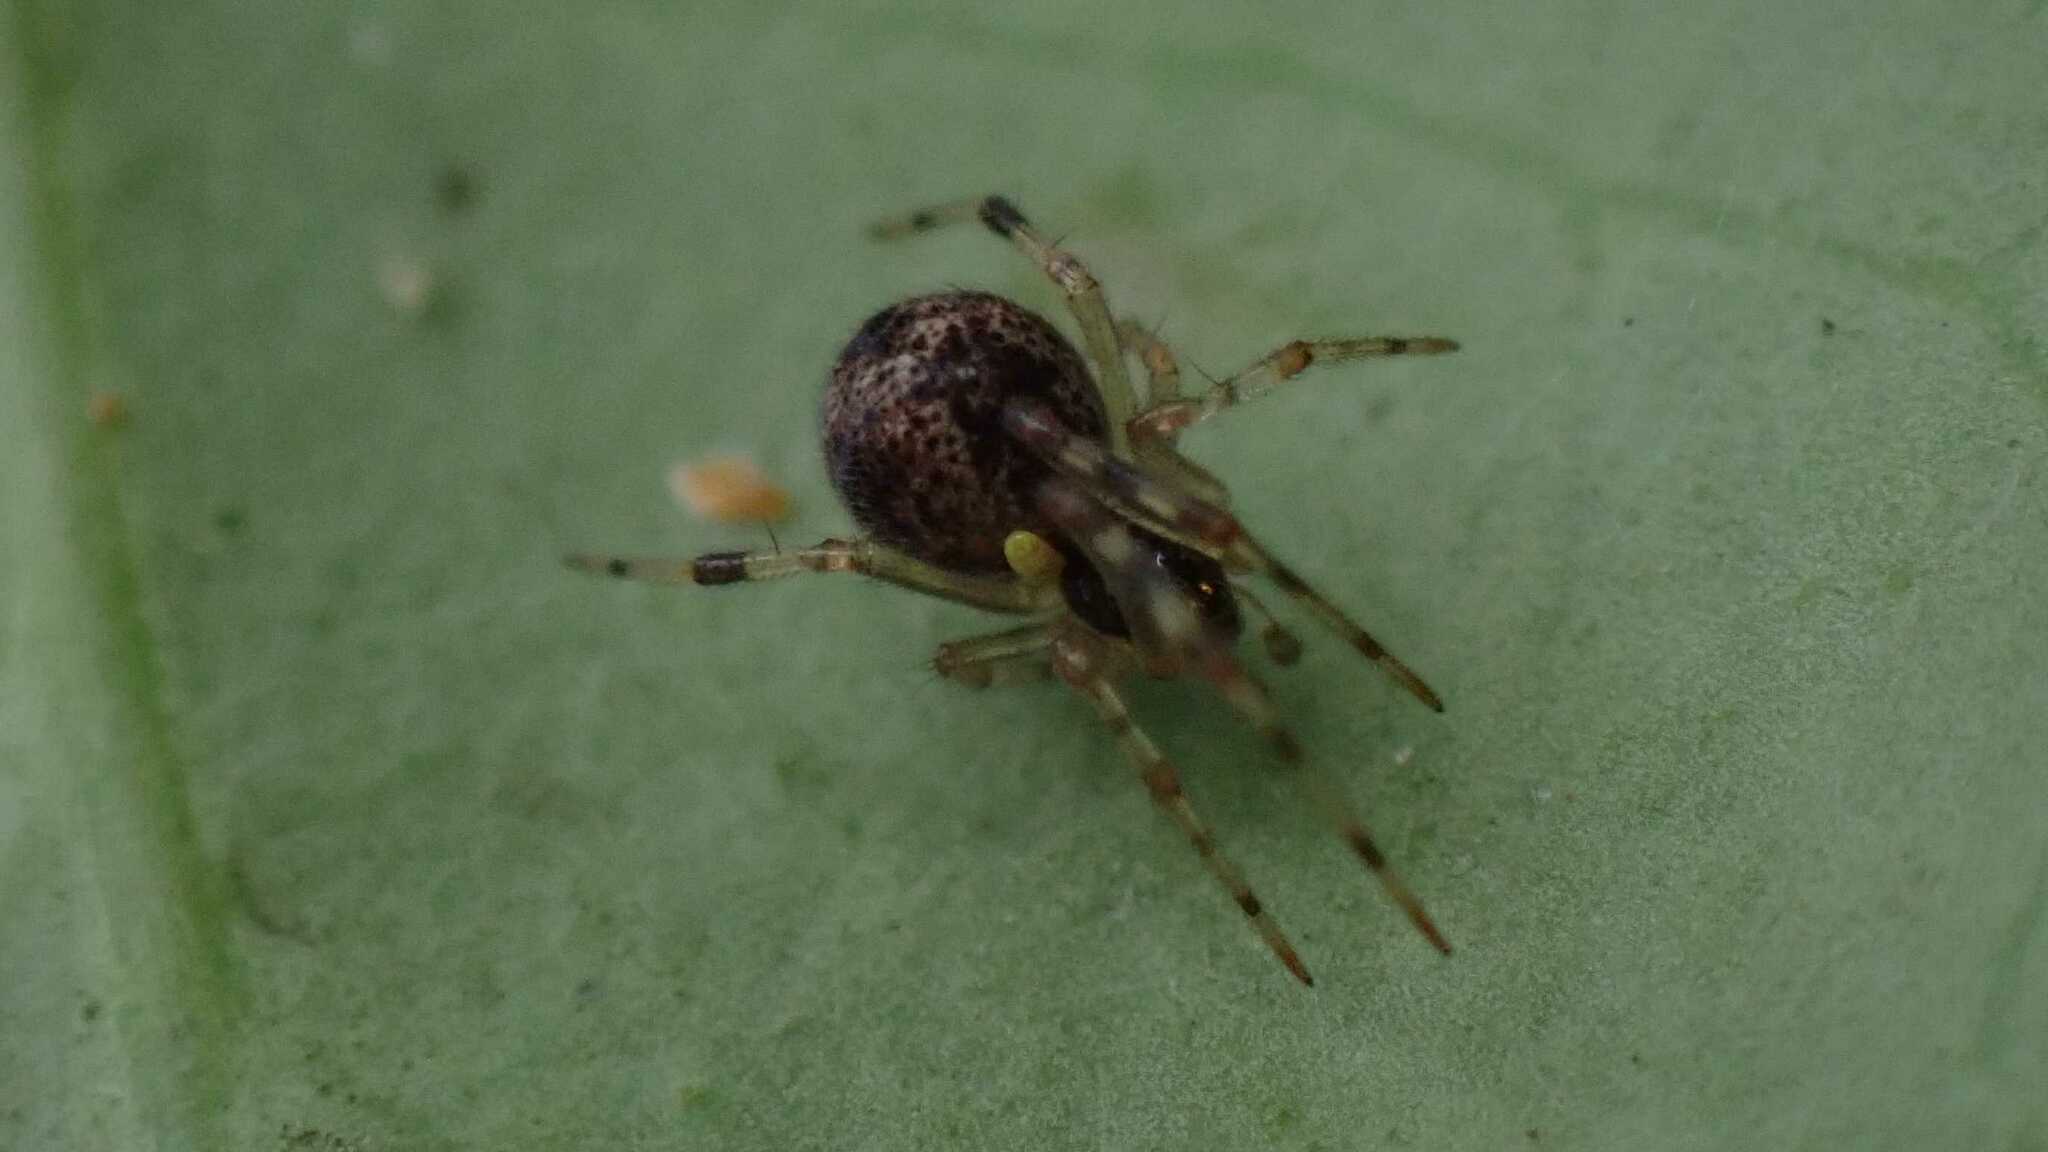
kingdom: Animalia
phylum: Arthropoda
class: Arachnida
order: Araneae
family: Theridiidae
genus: Parasteatoda
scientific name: Parasteatoda tepidariorum
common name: Common house spider
